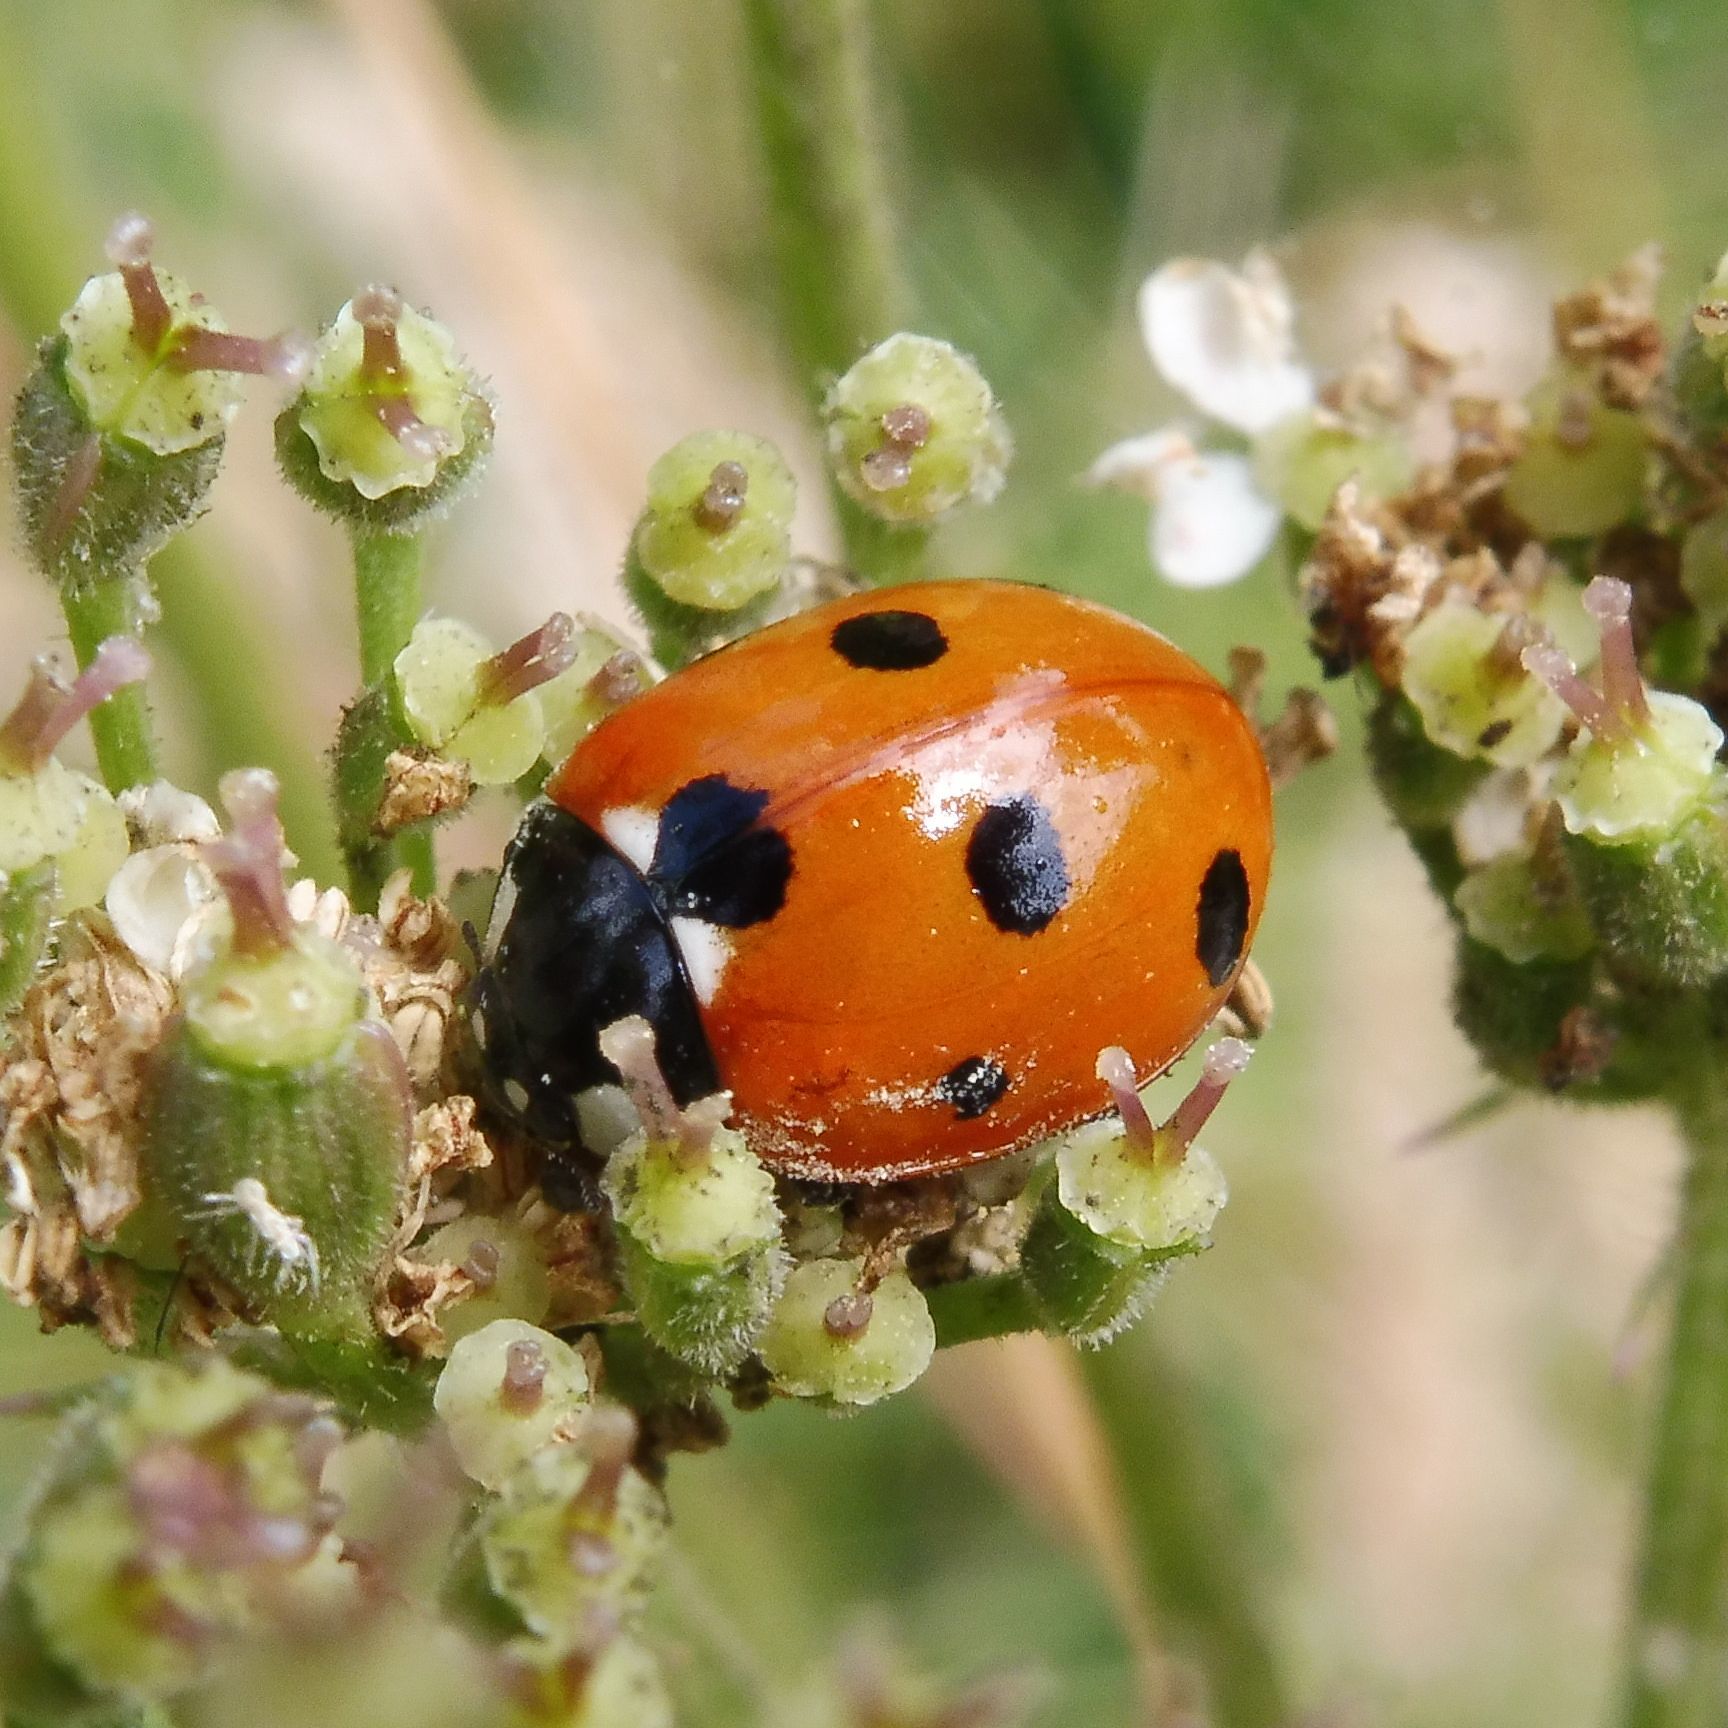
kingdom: Animalia
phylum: Arthropoda
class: Insecta
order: Coleoptera
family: Coccinellidae
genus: Coccinella
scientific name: Coccinella septempunctata
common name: Sevenspotted lady beetle
